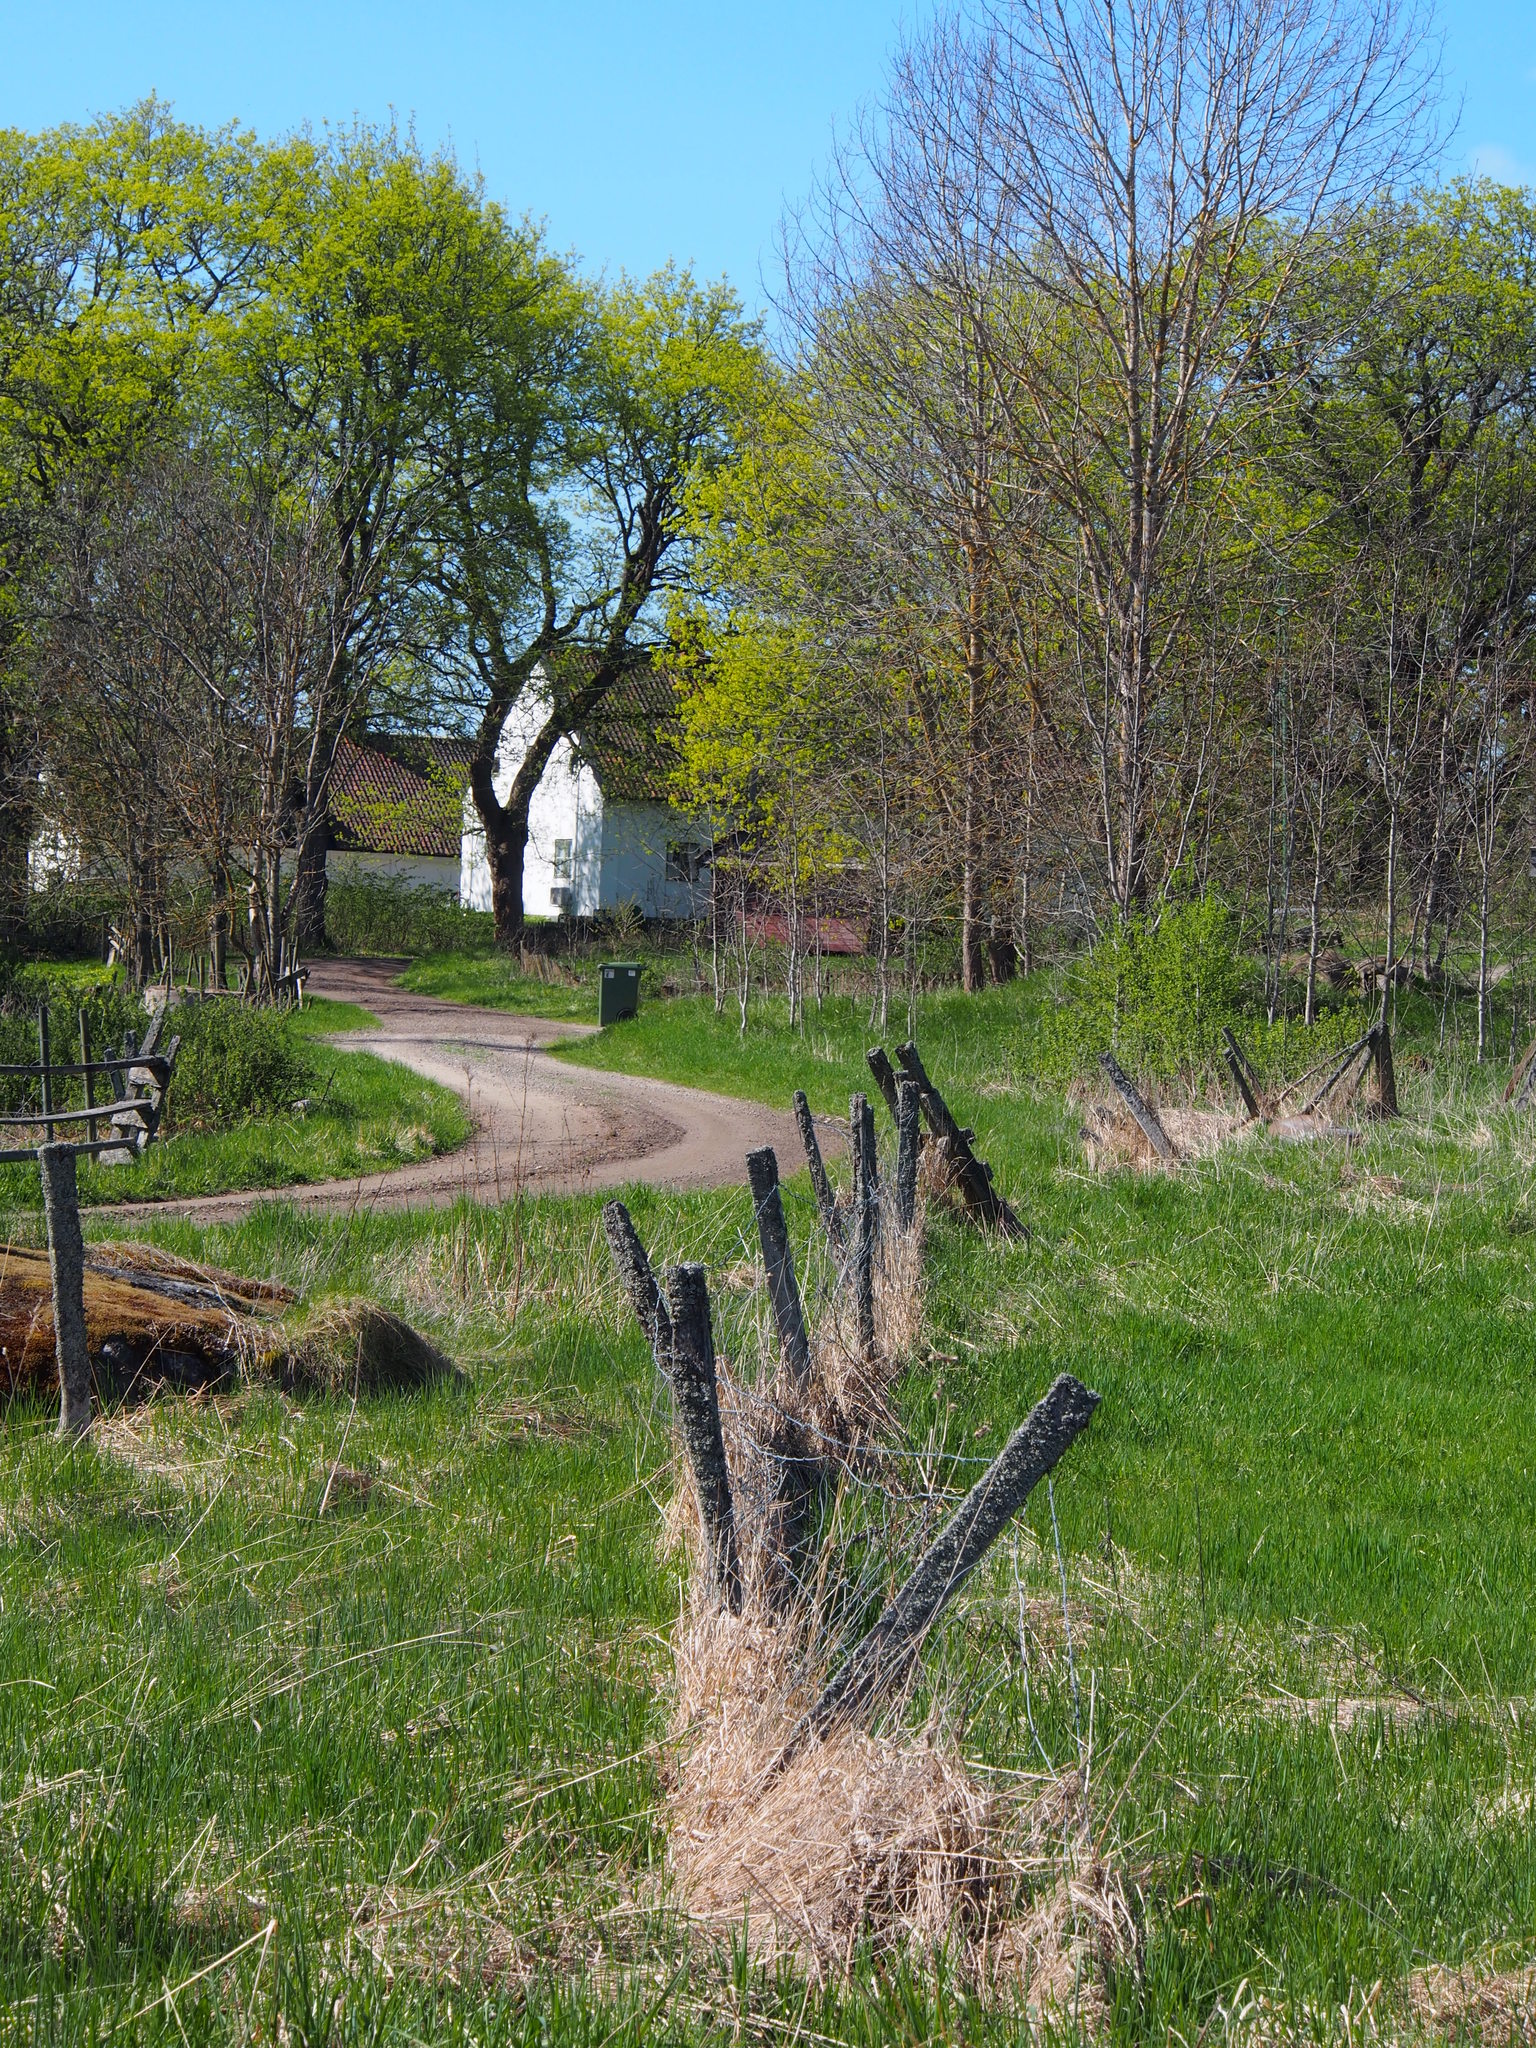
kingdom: Plantae
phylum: Tracheophyta
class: Magnoliopsida
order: Sapindales
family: Sapindaceae
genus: Acer
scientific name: Acer platanoides
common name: Norway maple
